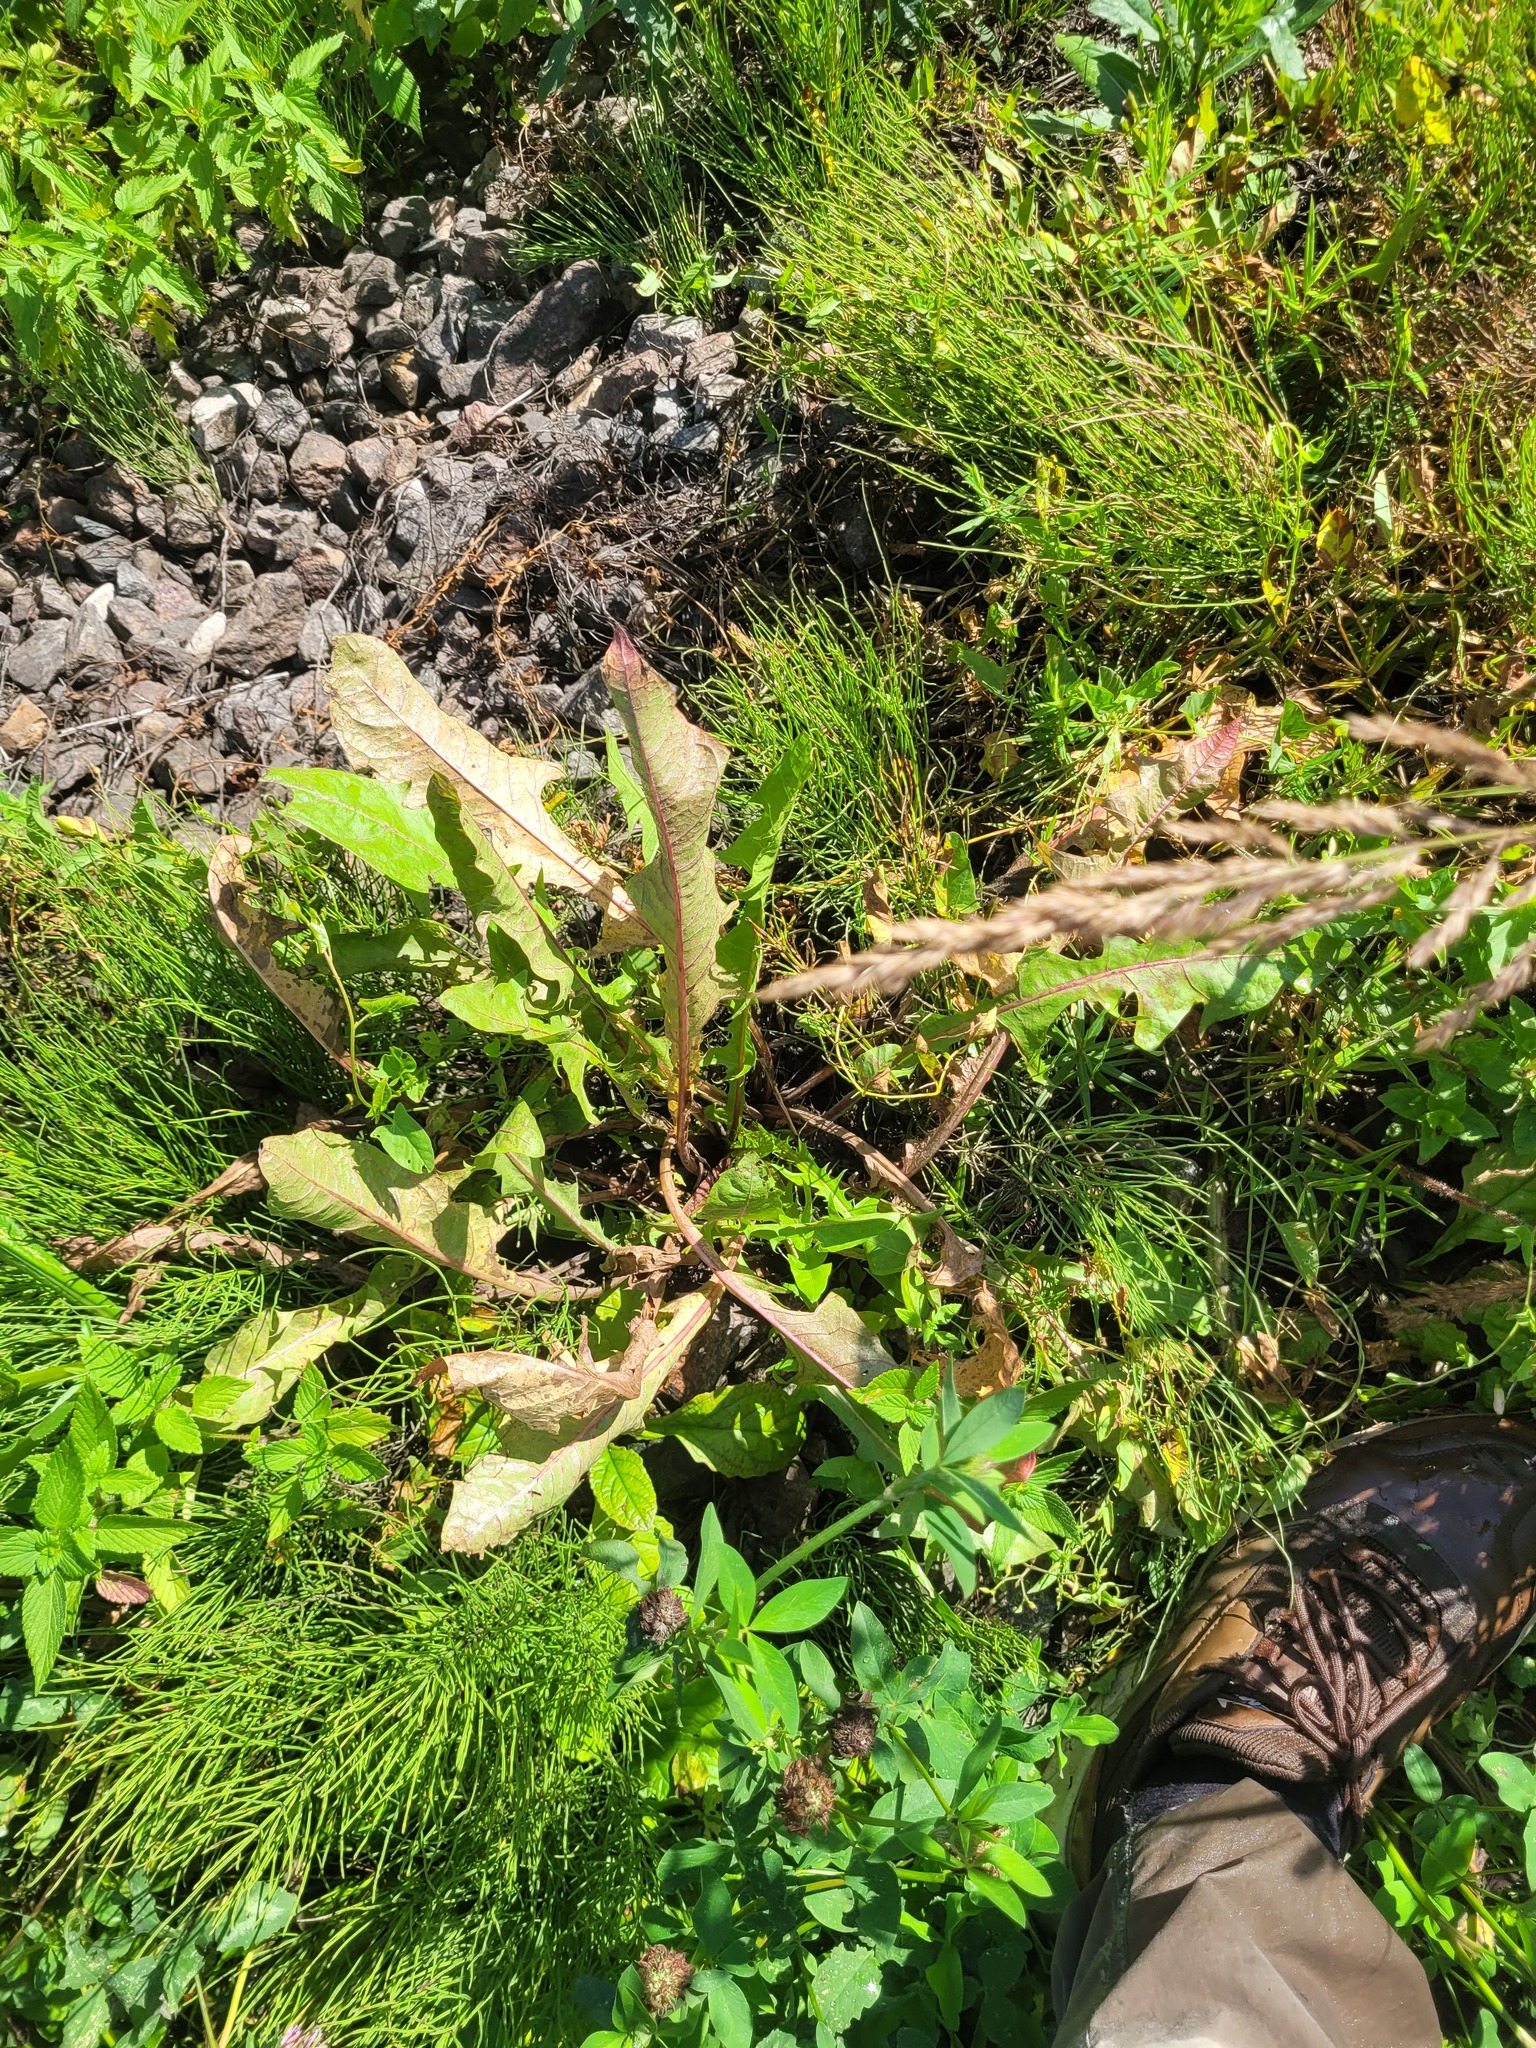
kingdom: Plantae
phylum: Tracheophyta
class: Magnoliopsida
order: Asterales
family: Asteraceae
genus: Taraxacum
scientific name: Taraxacum officinale
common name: Common dandelion
